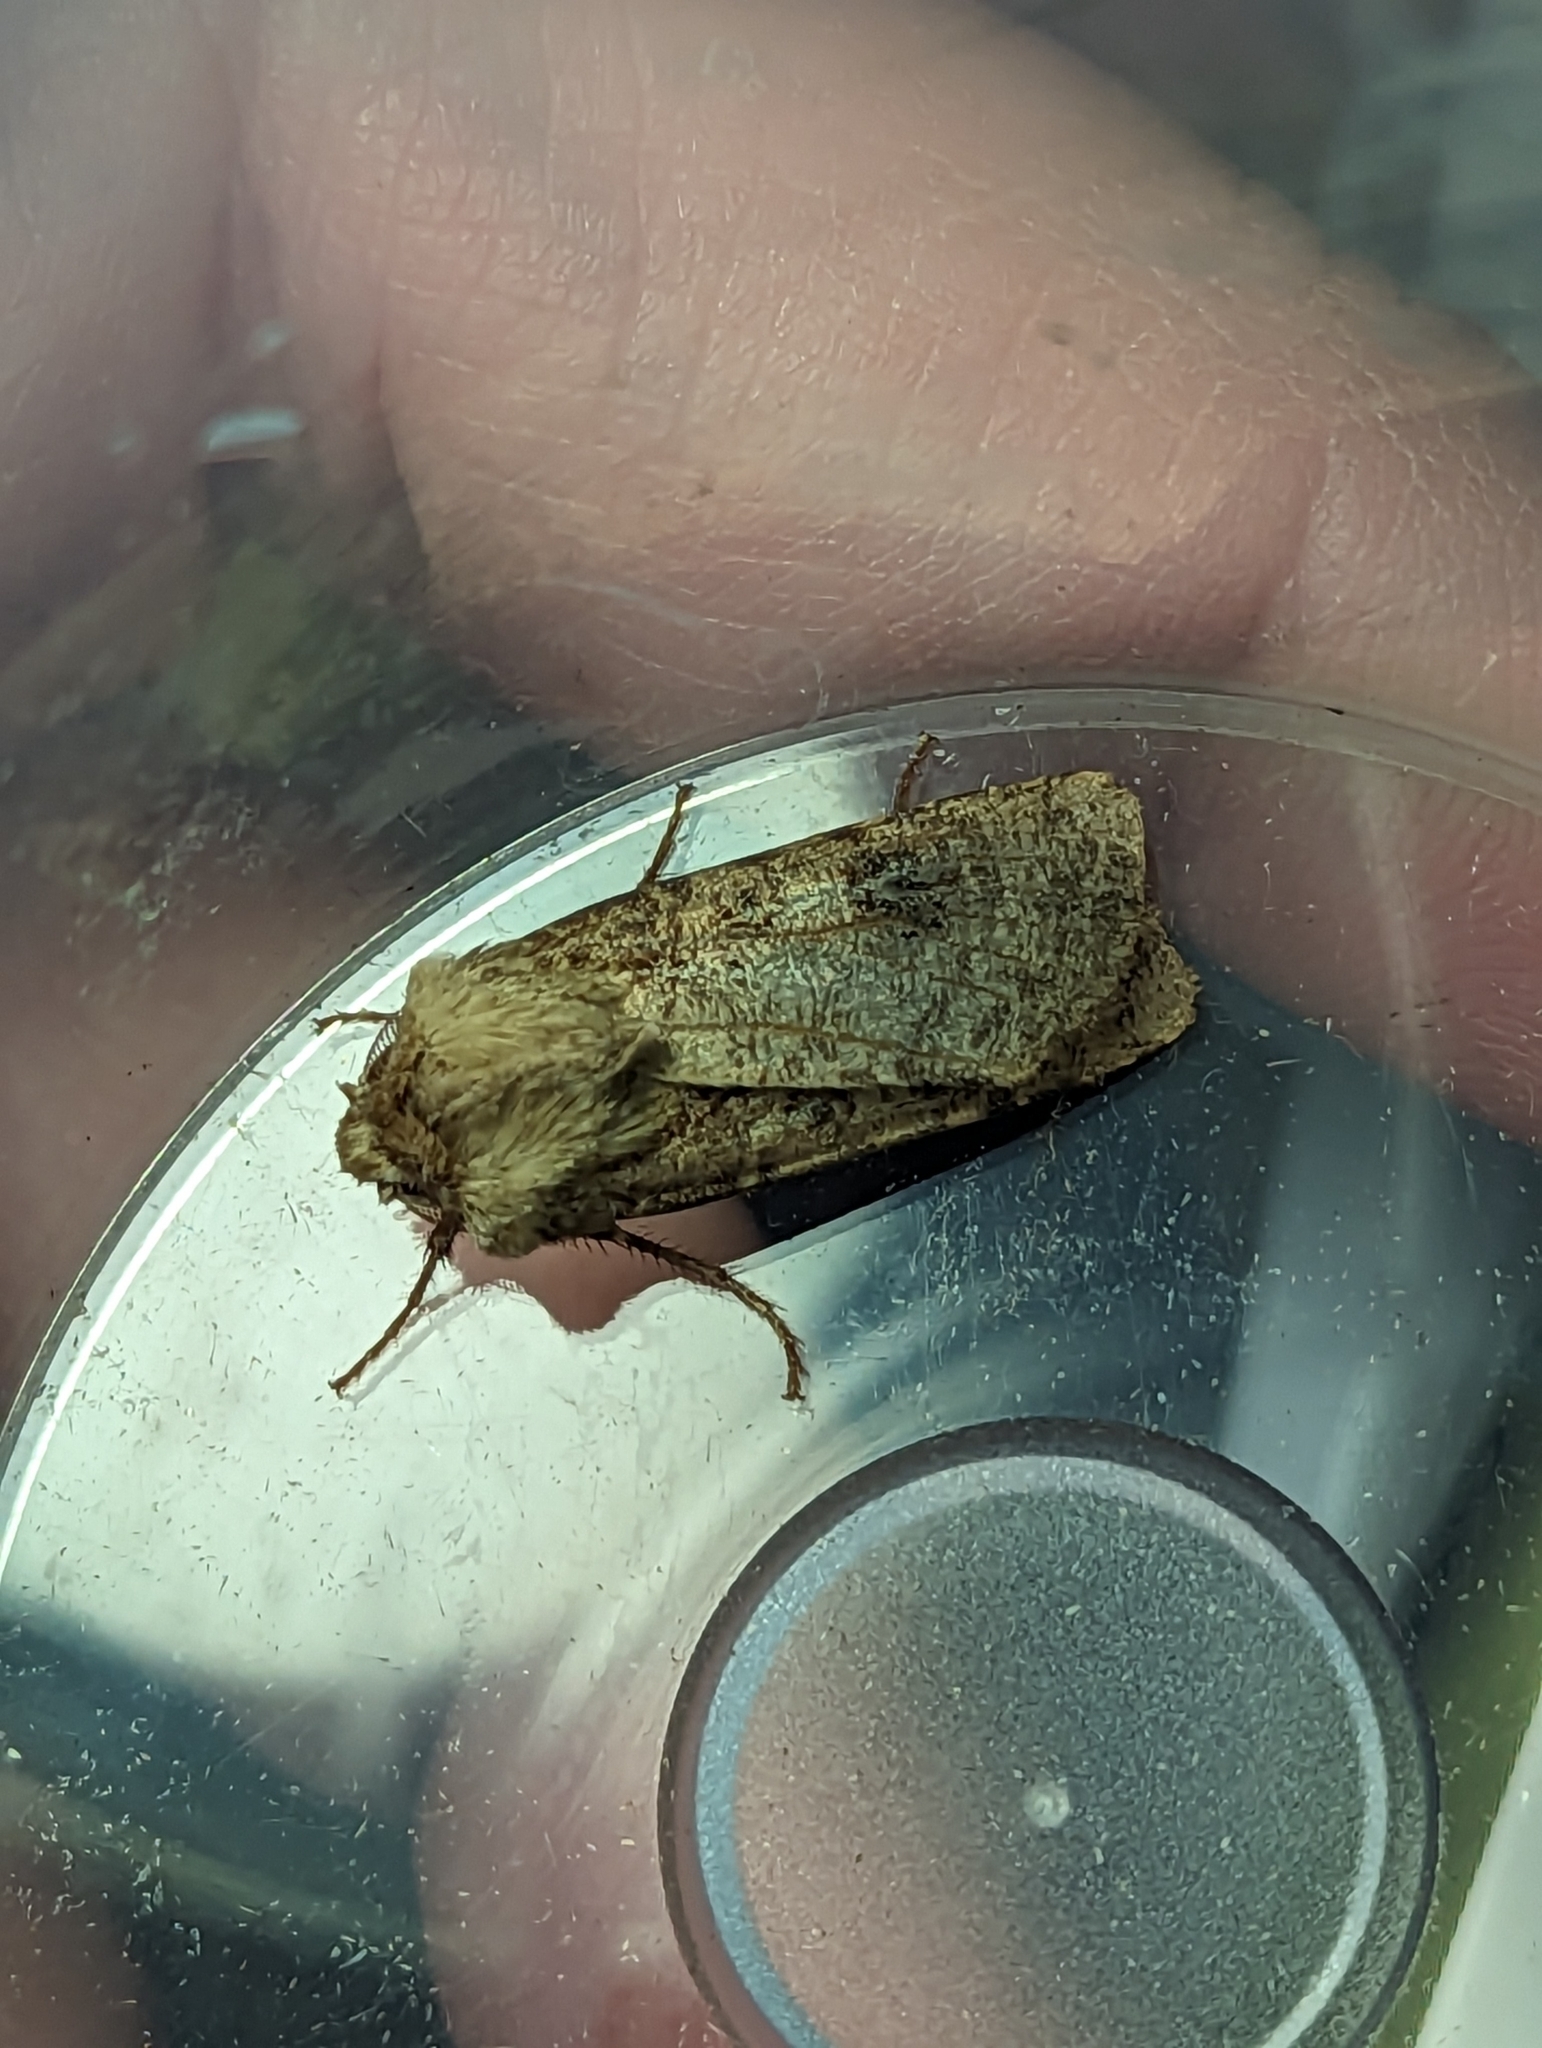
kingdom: Animalia
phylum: Arthropoda
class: Insecta
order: Lepidoptera
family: Noctuidae
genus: Agrotis
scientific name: Agrotis clavis
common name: Heart and club
